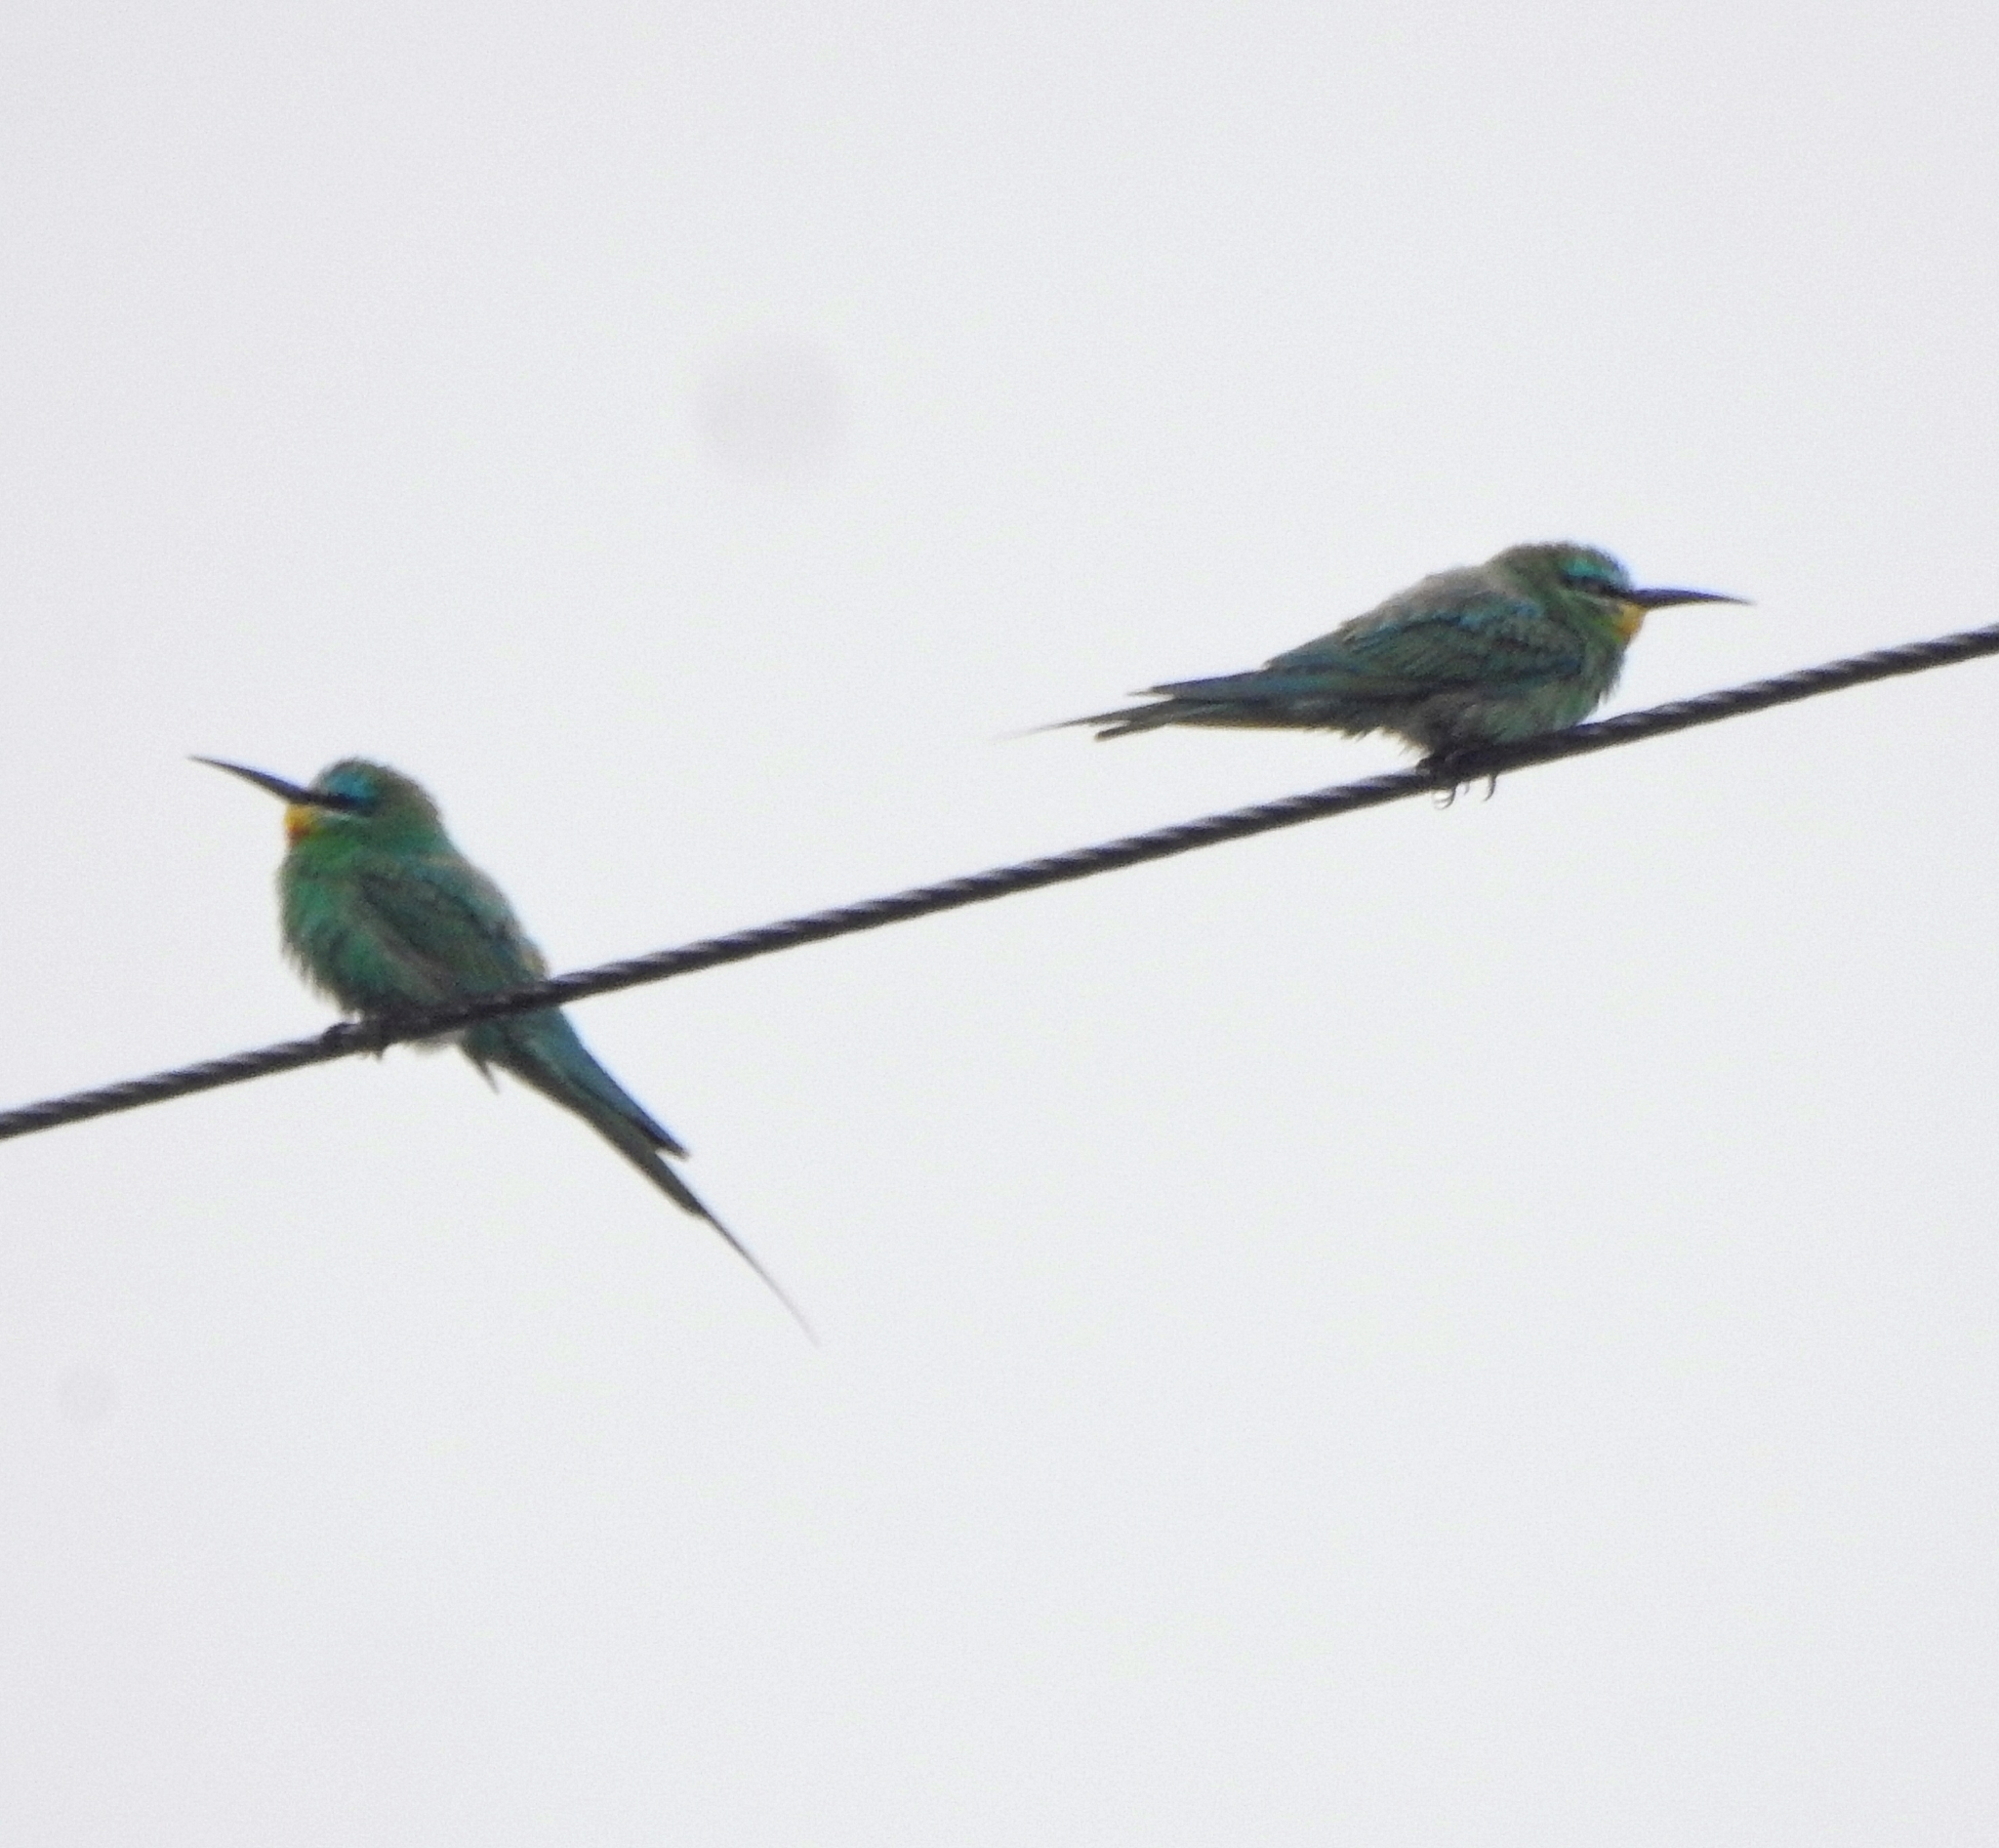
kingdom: Animalia
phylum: Chordata
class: Aves
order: Coraciiformes
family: Meropidae
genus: Merops
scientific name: Merops persicus
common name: Blue-cheeked bee-eater
